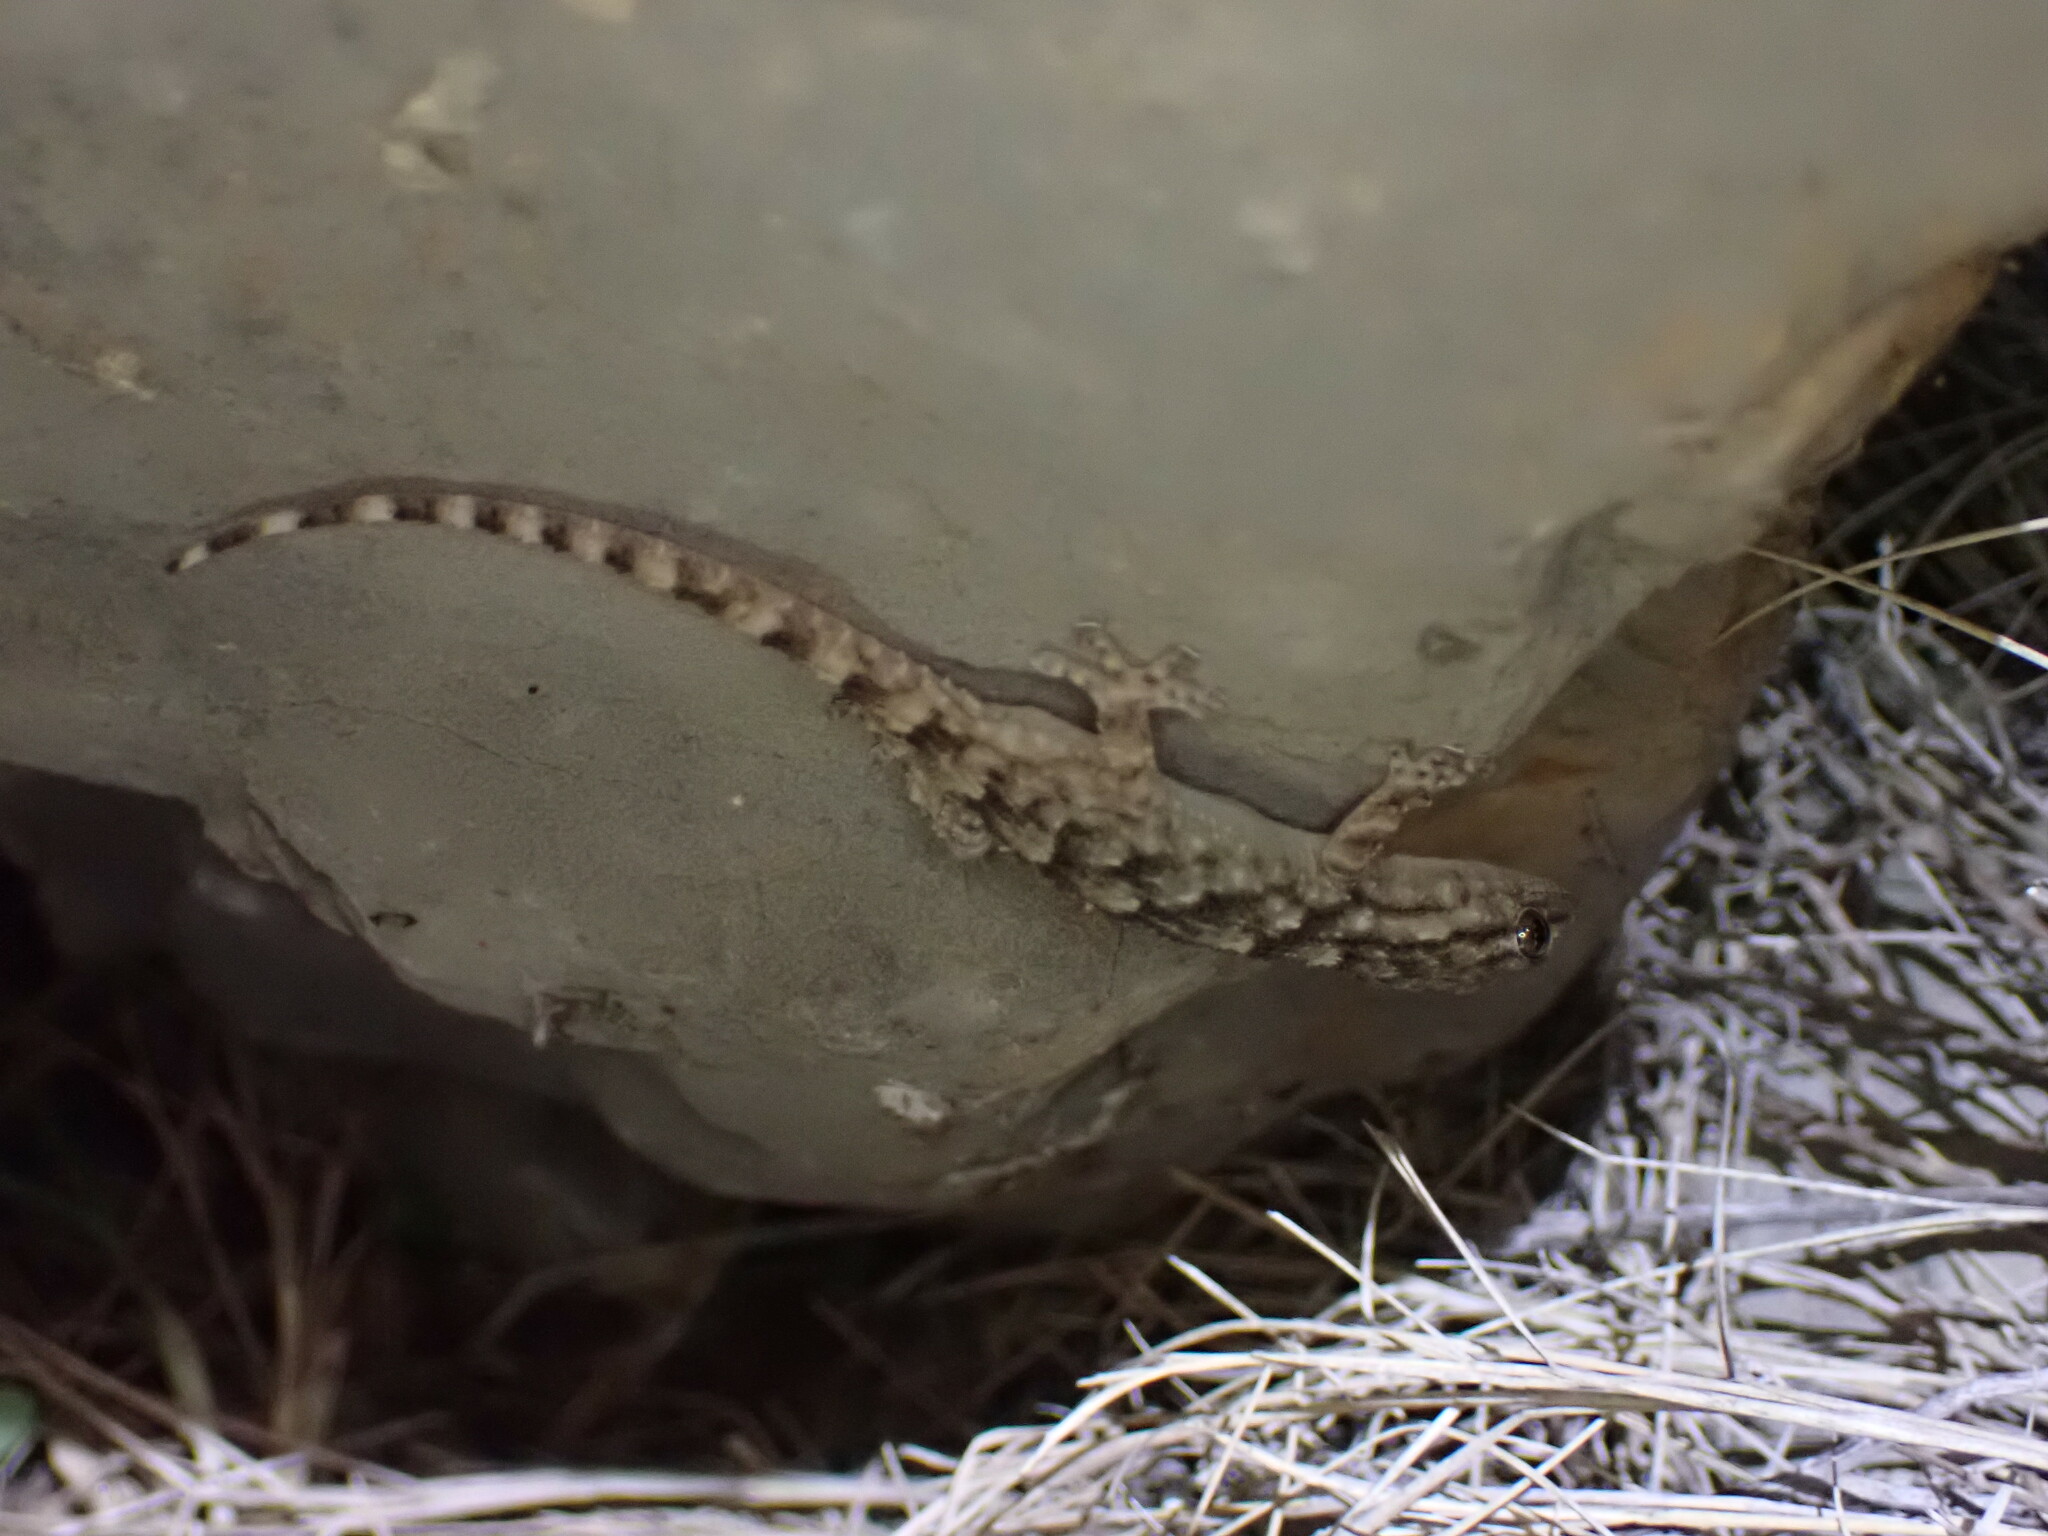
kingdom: Animalia
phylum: Chordata
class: Squamata
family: Phyllodactylidae
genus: Tarentola
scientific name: Tarentola mauritanica
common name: Moorish gecko
